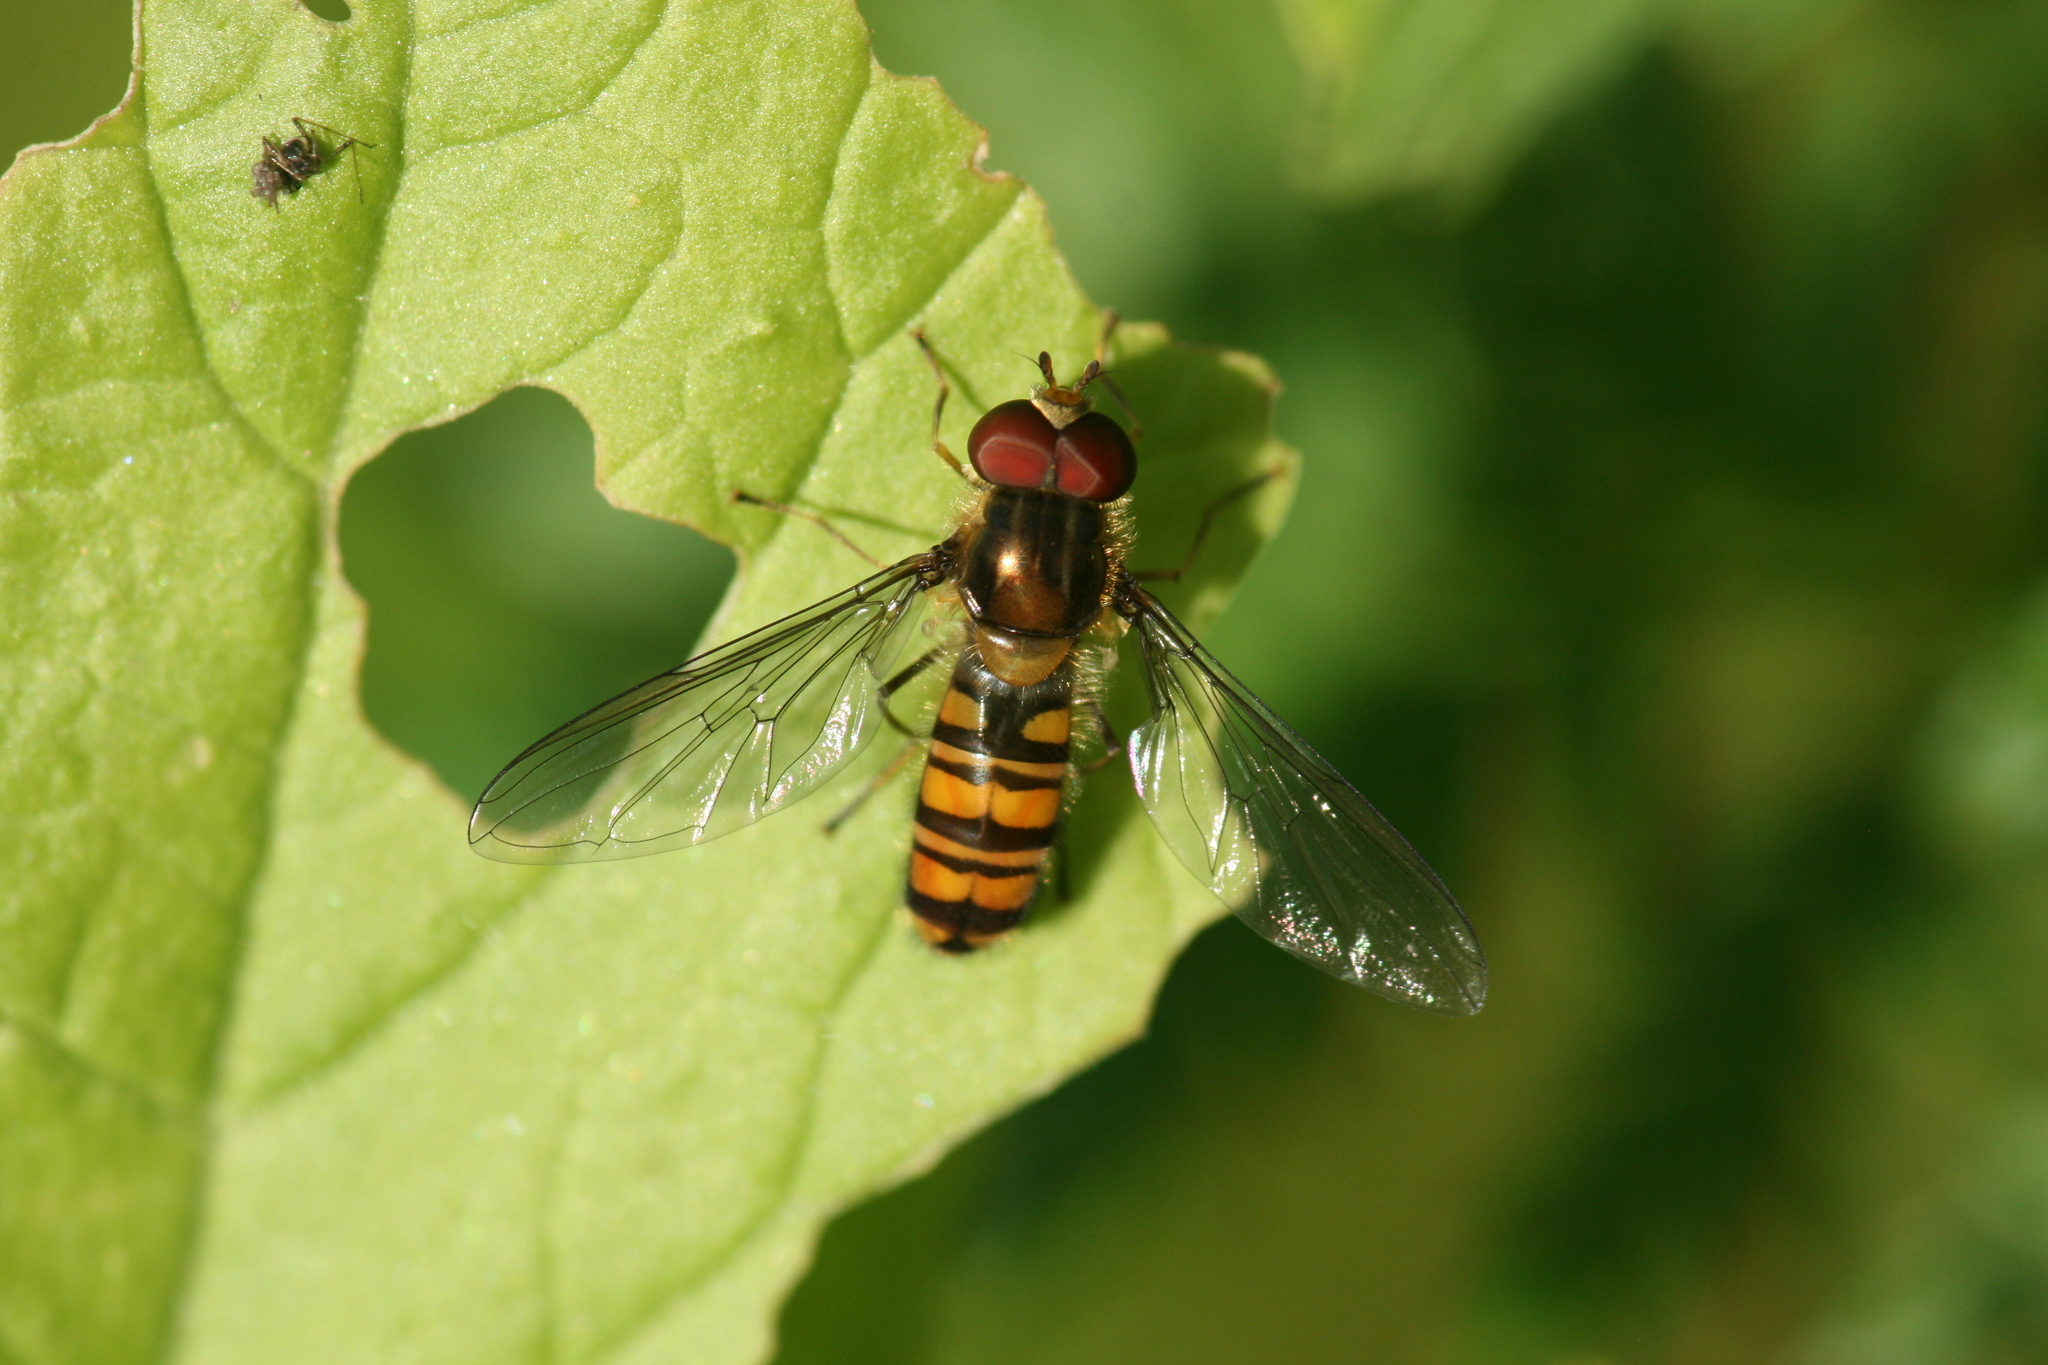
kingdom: Animalia
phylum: Arthropoda
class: Insecta
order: Diptera
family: Syrphidae
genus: Episyrphus
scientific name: Episyrphus balteatus
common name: Marmalade hoverfly
